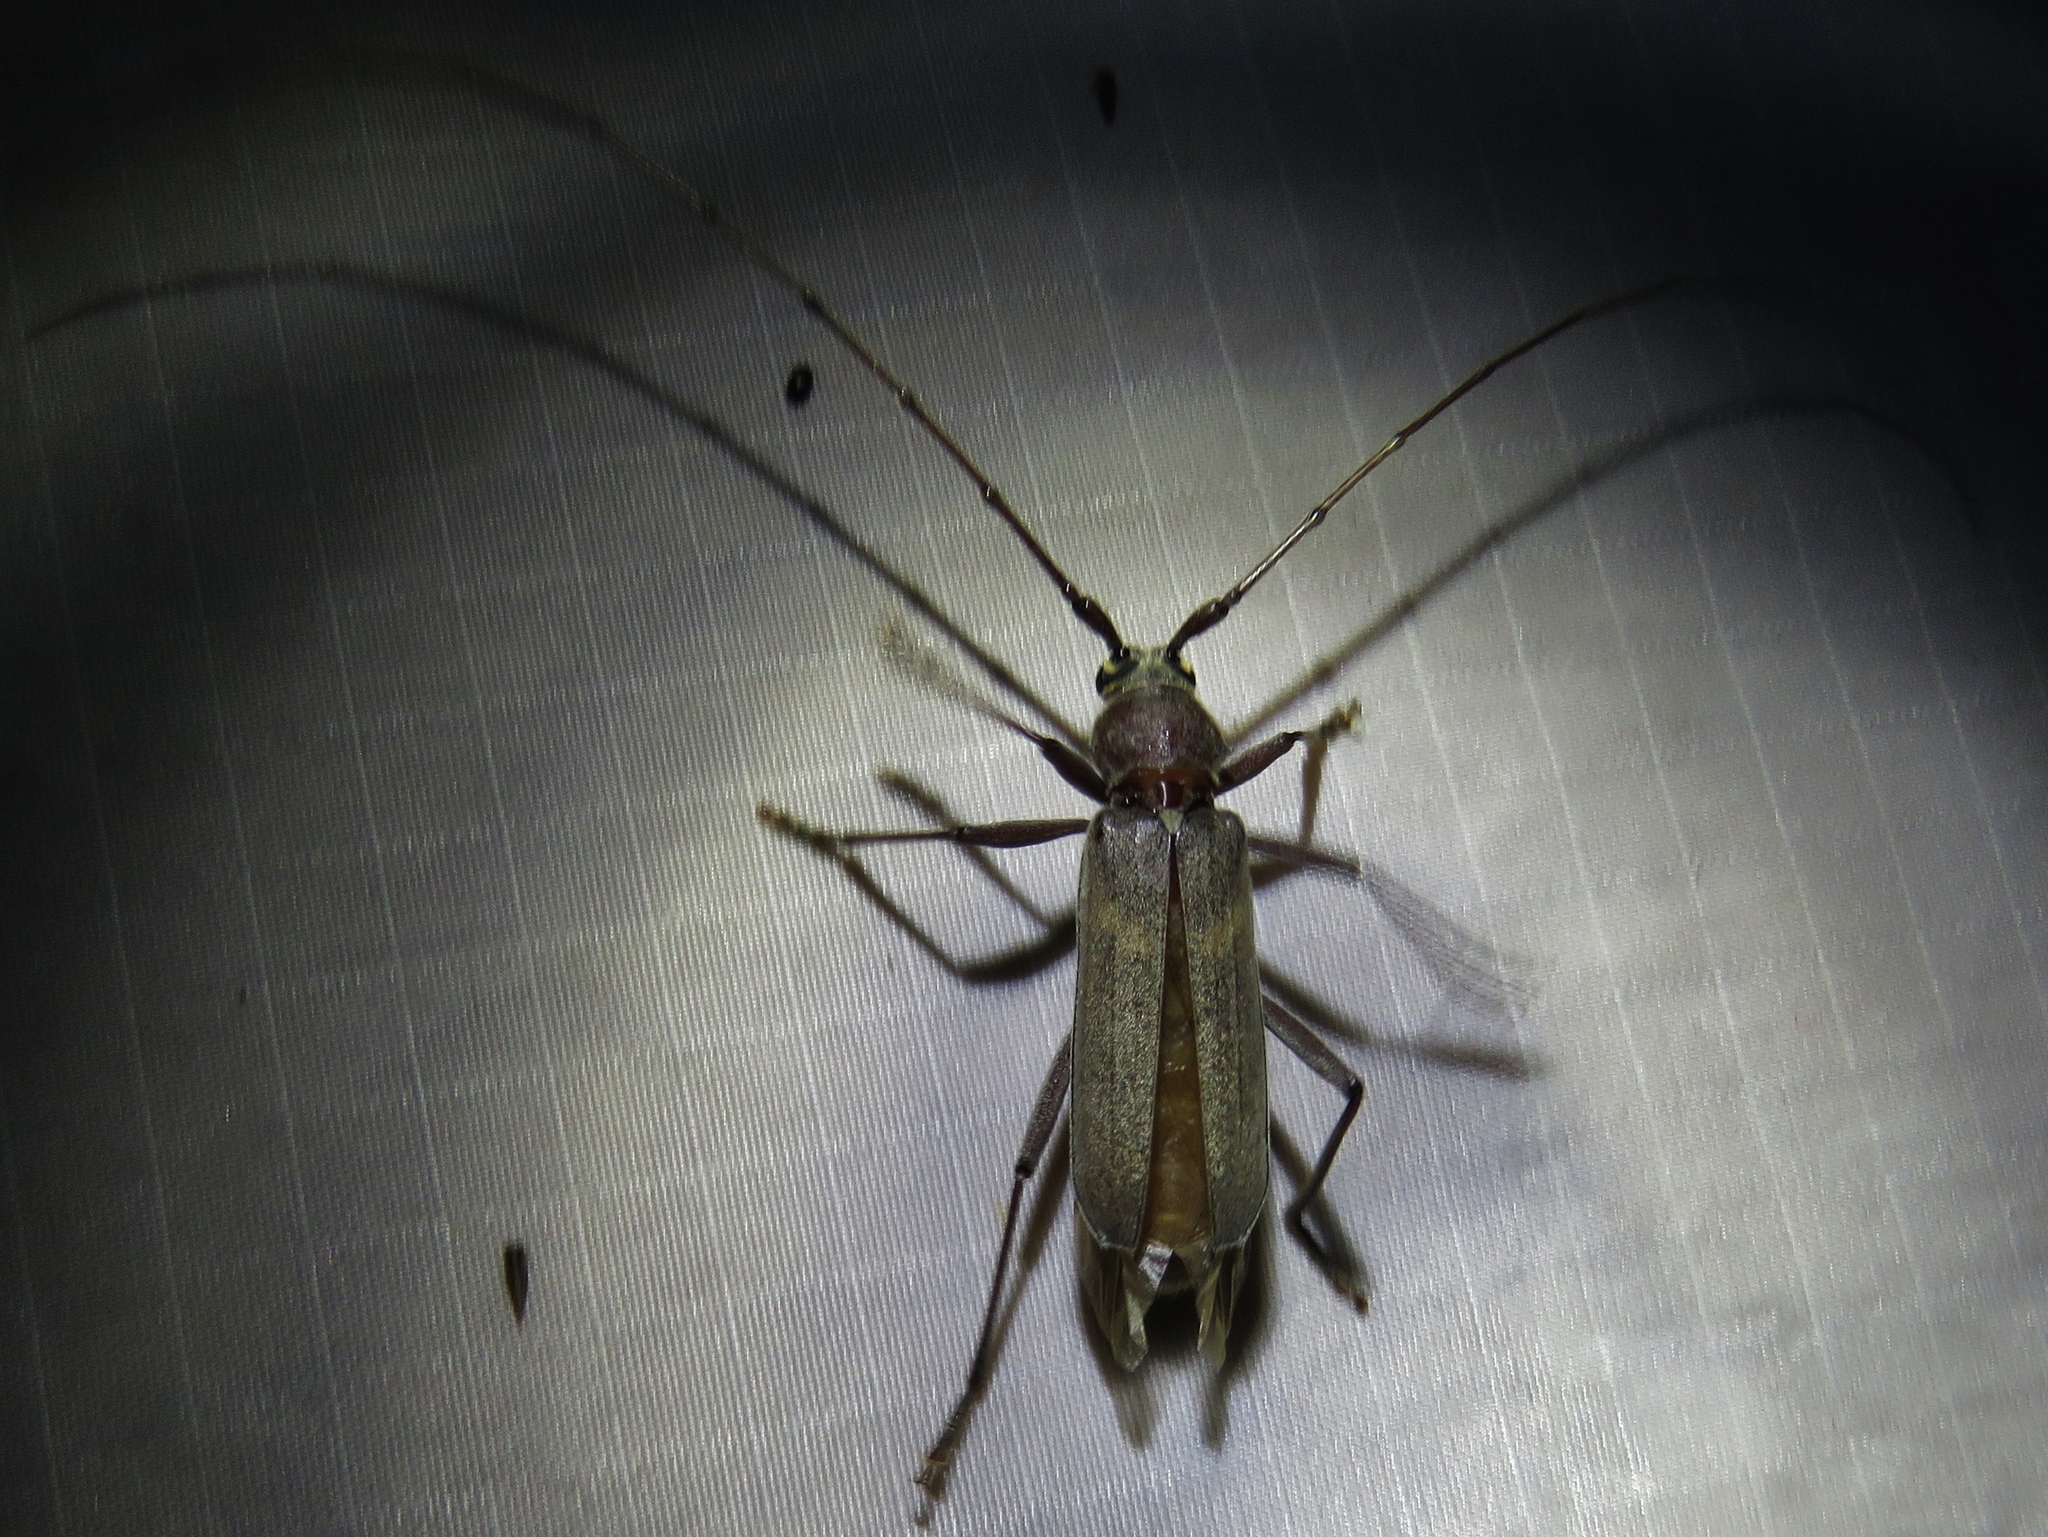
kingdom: Animalia
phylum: Arthropoda
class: Insecta
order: Coleoptera
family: Cerambycidae
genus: Knulliana
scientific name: Knulliana cincta
